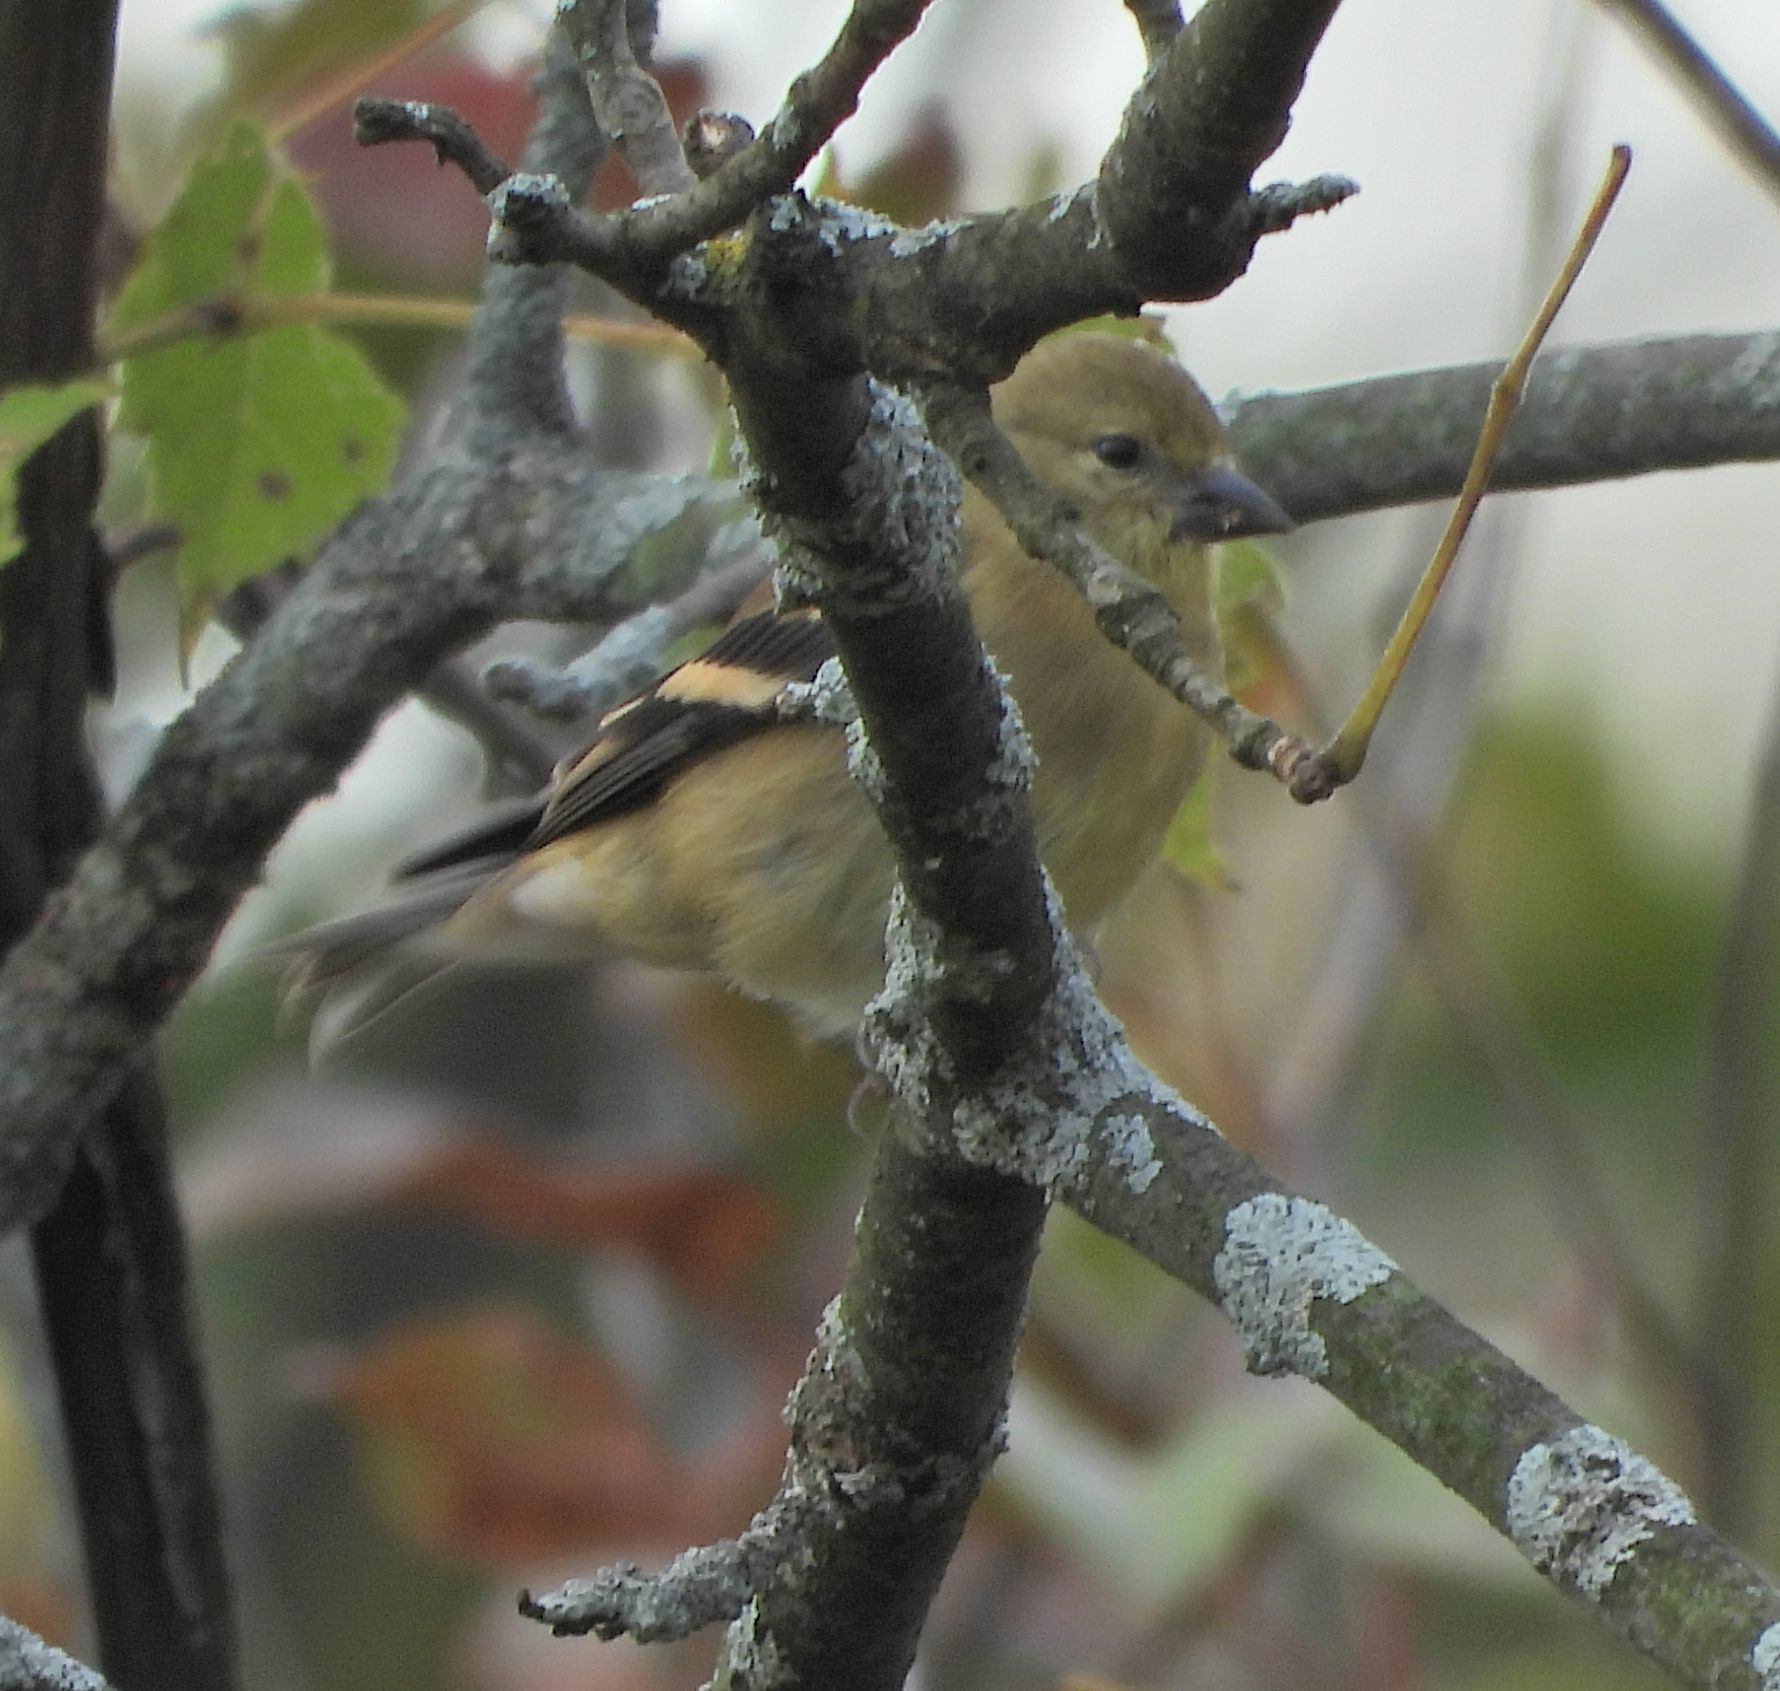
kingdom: Animalia
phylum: Chordata
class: Aves
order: Passeriformes
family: Fringillidae
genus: Spinus
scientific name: Spinus tristis
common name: American goldfinch
